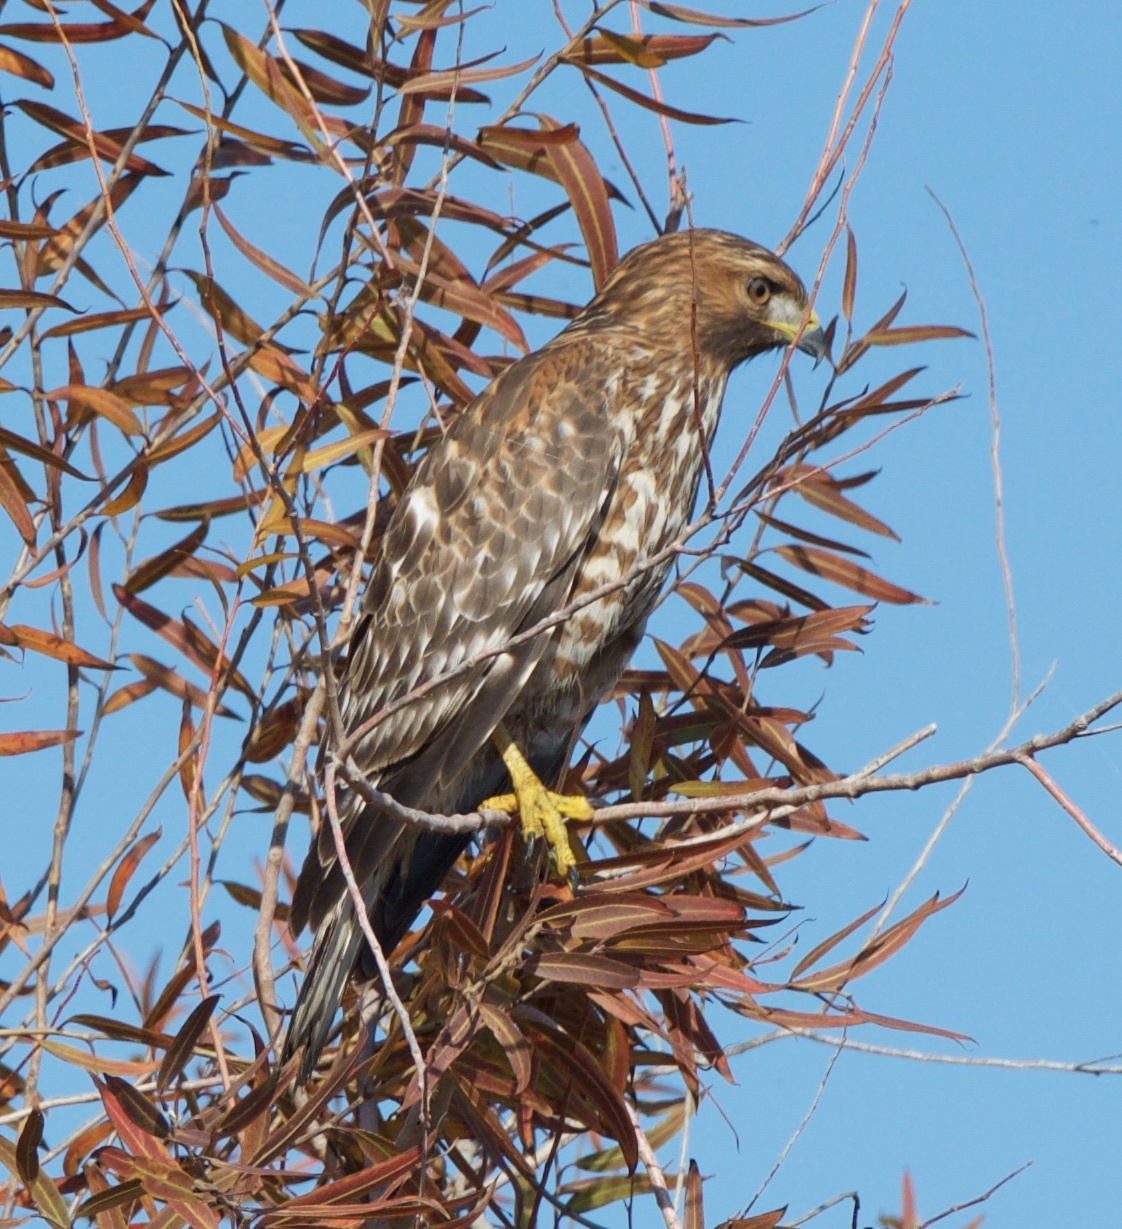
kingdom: Animalia
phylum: Chordata
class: Aves
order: Accipitriformes
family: Accipitridae
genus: Buteo
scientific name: Buteo lineatus
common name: Red-shouldered hawk
